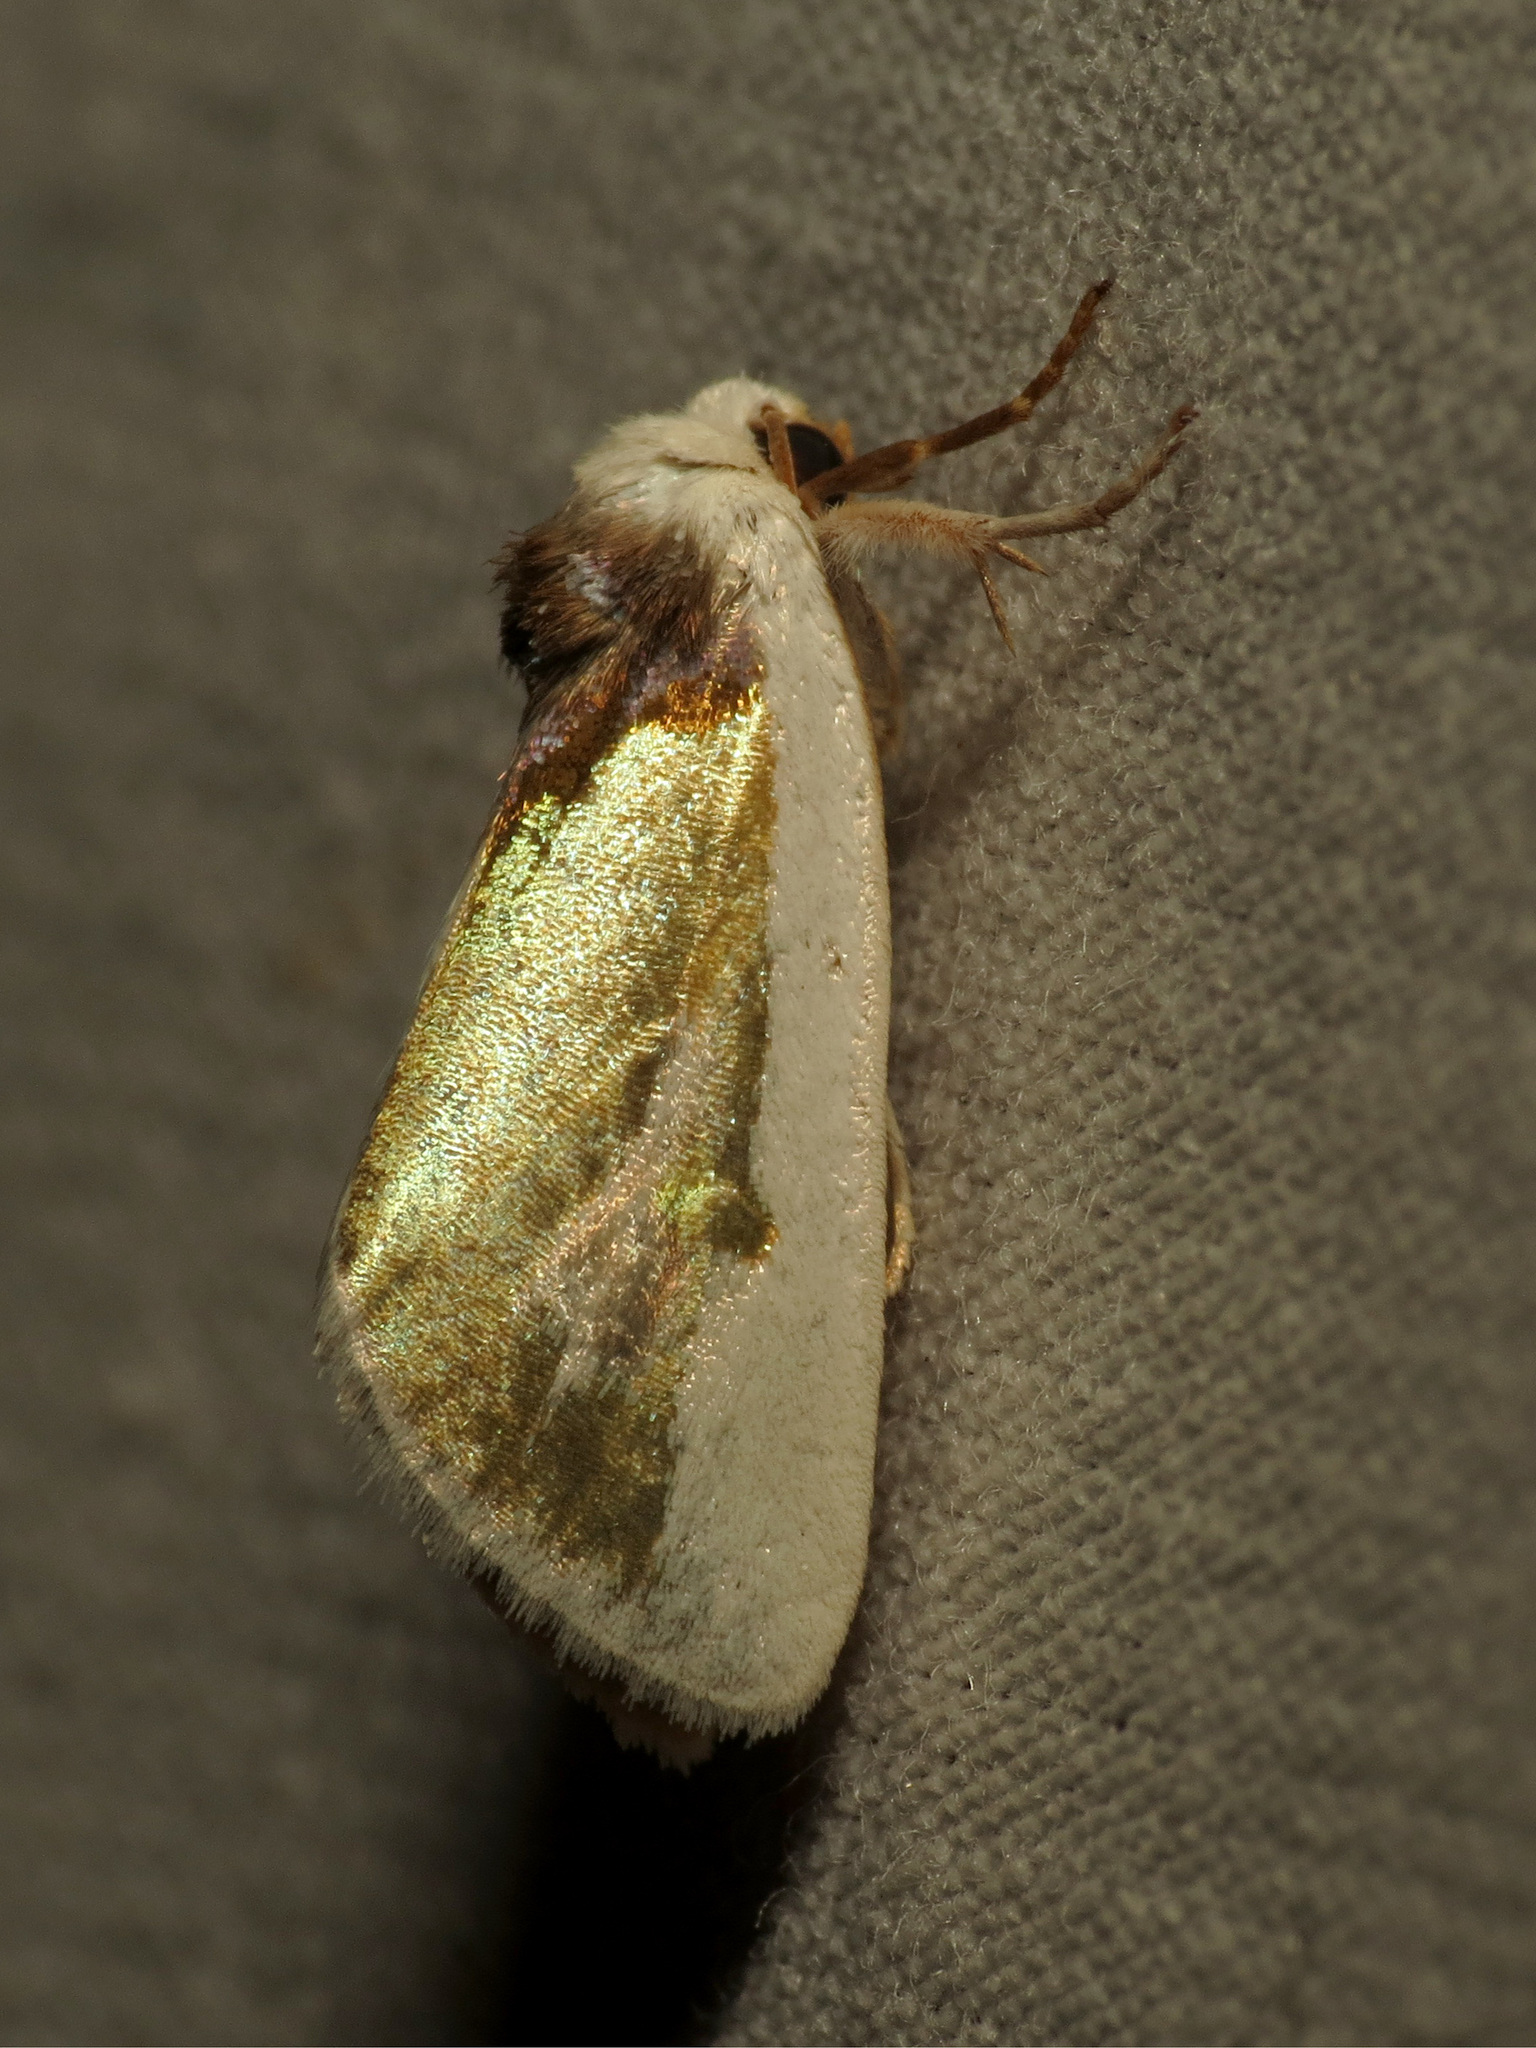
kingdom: Animalia
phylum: Arthropoda
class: Insecta
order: Lepidoptera
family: Noctuidae
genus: Neumoegenia
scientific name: Neumoegenia poetica
